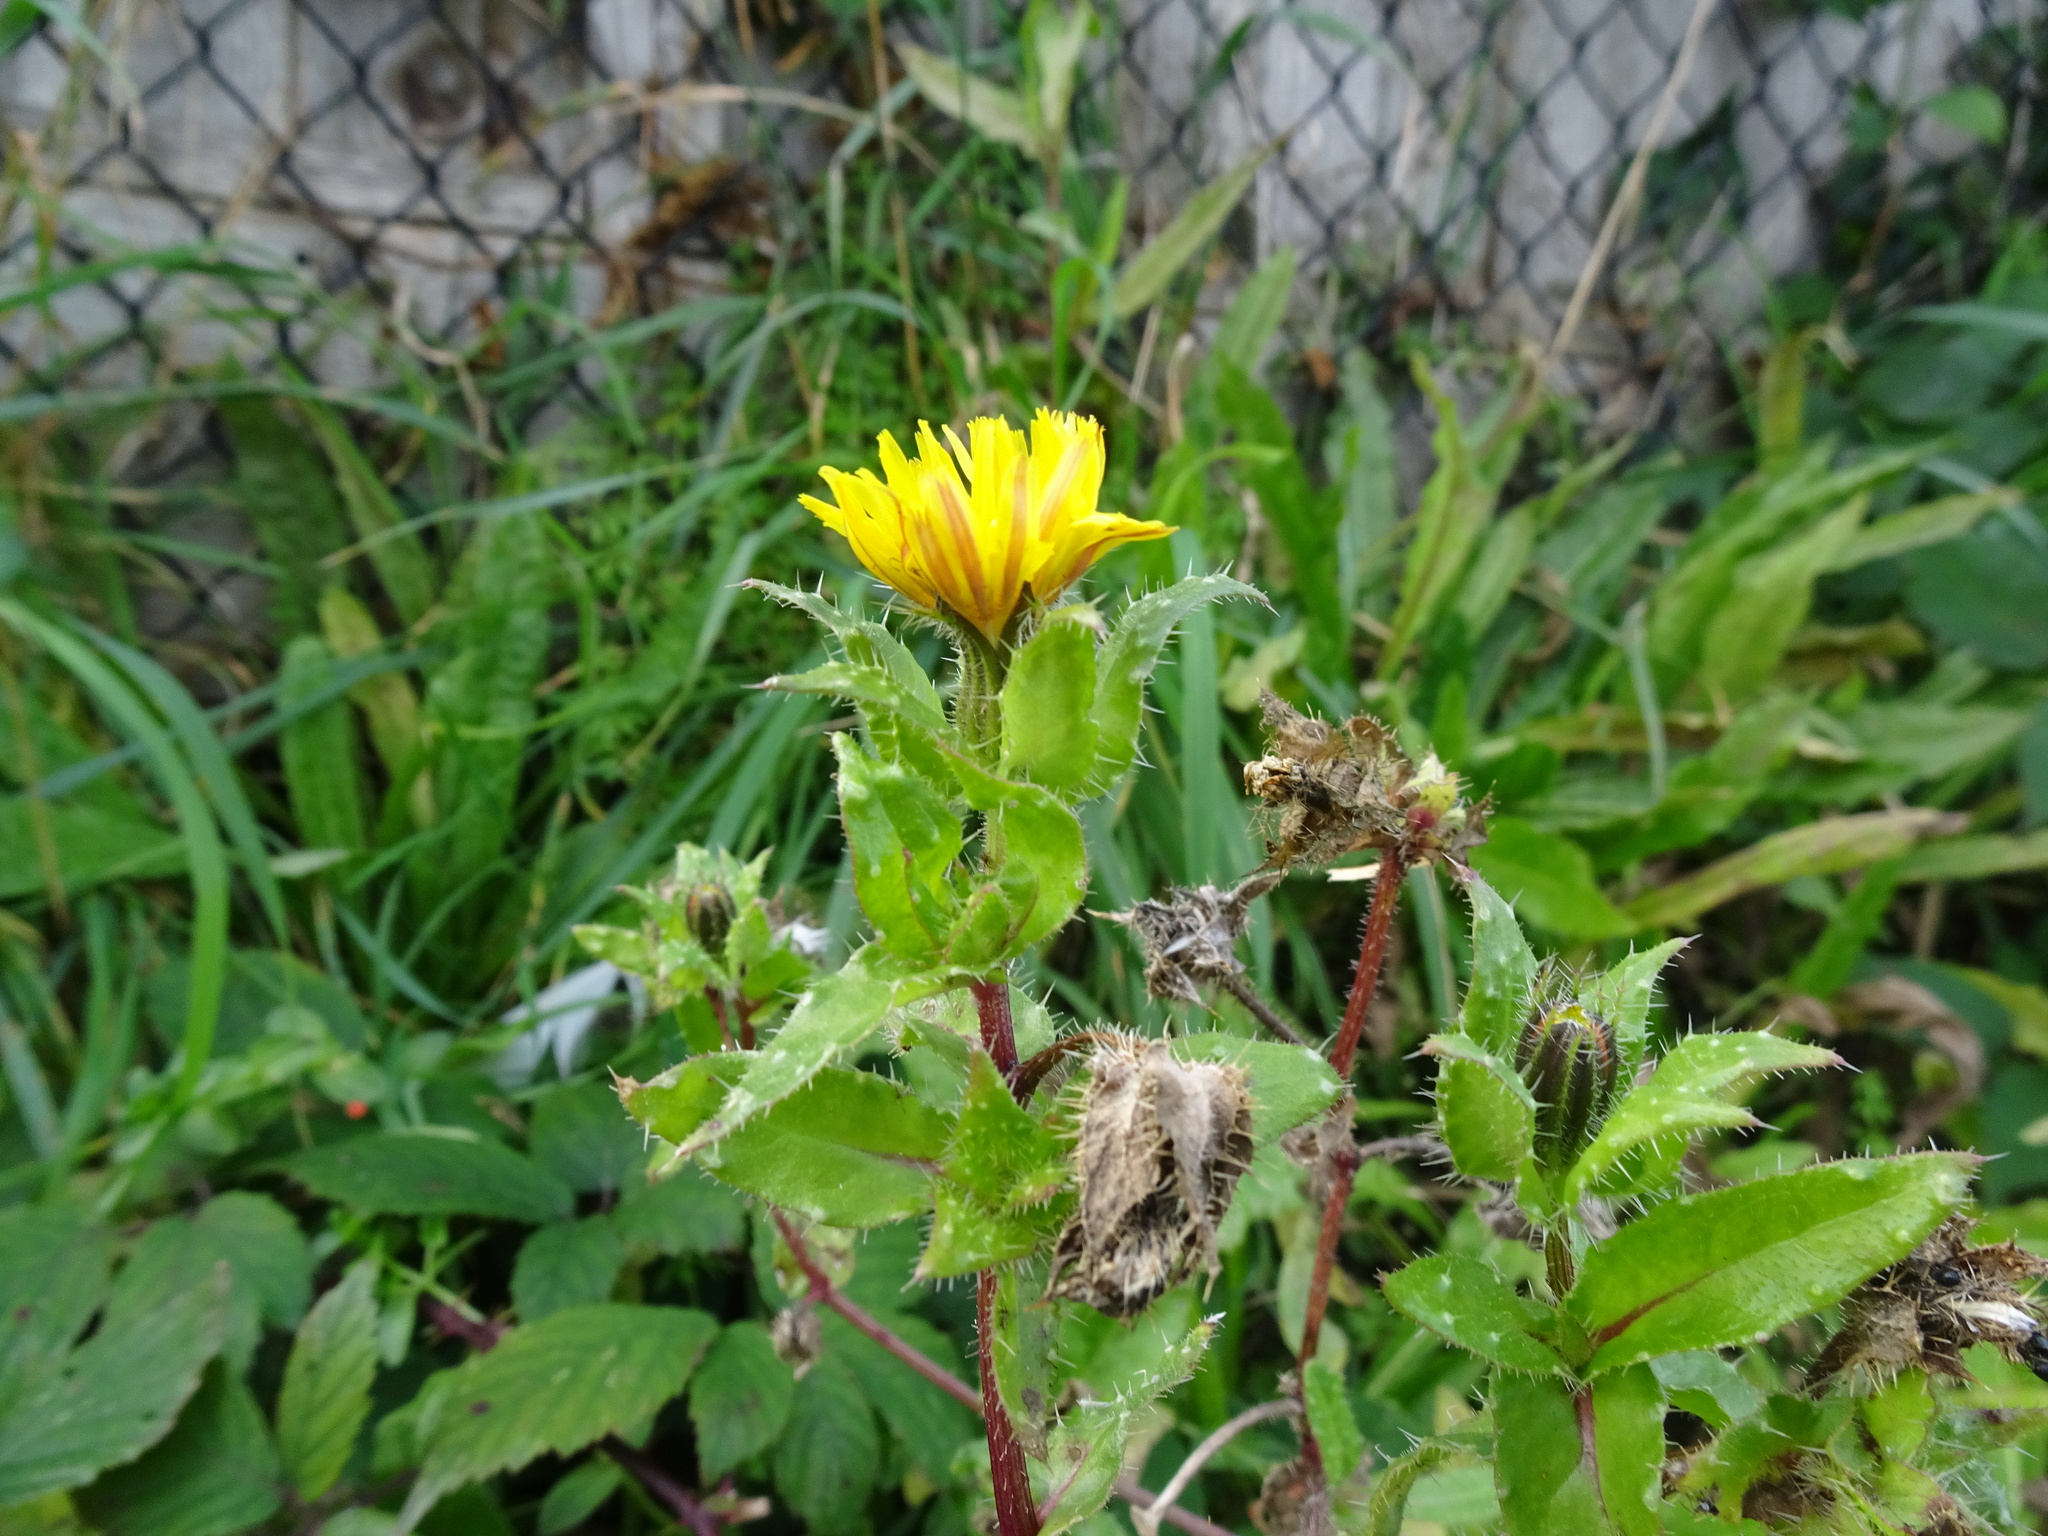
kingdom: Plantae
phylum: Tracheophyta
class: Magnoliopsida
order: Asterales
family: Asteraceae
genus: Helminthotheca
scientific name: Helminthotheca echioides
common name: Ox-tongue
